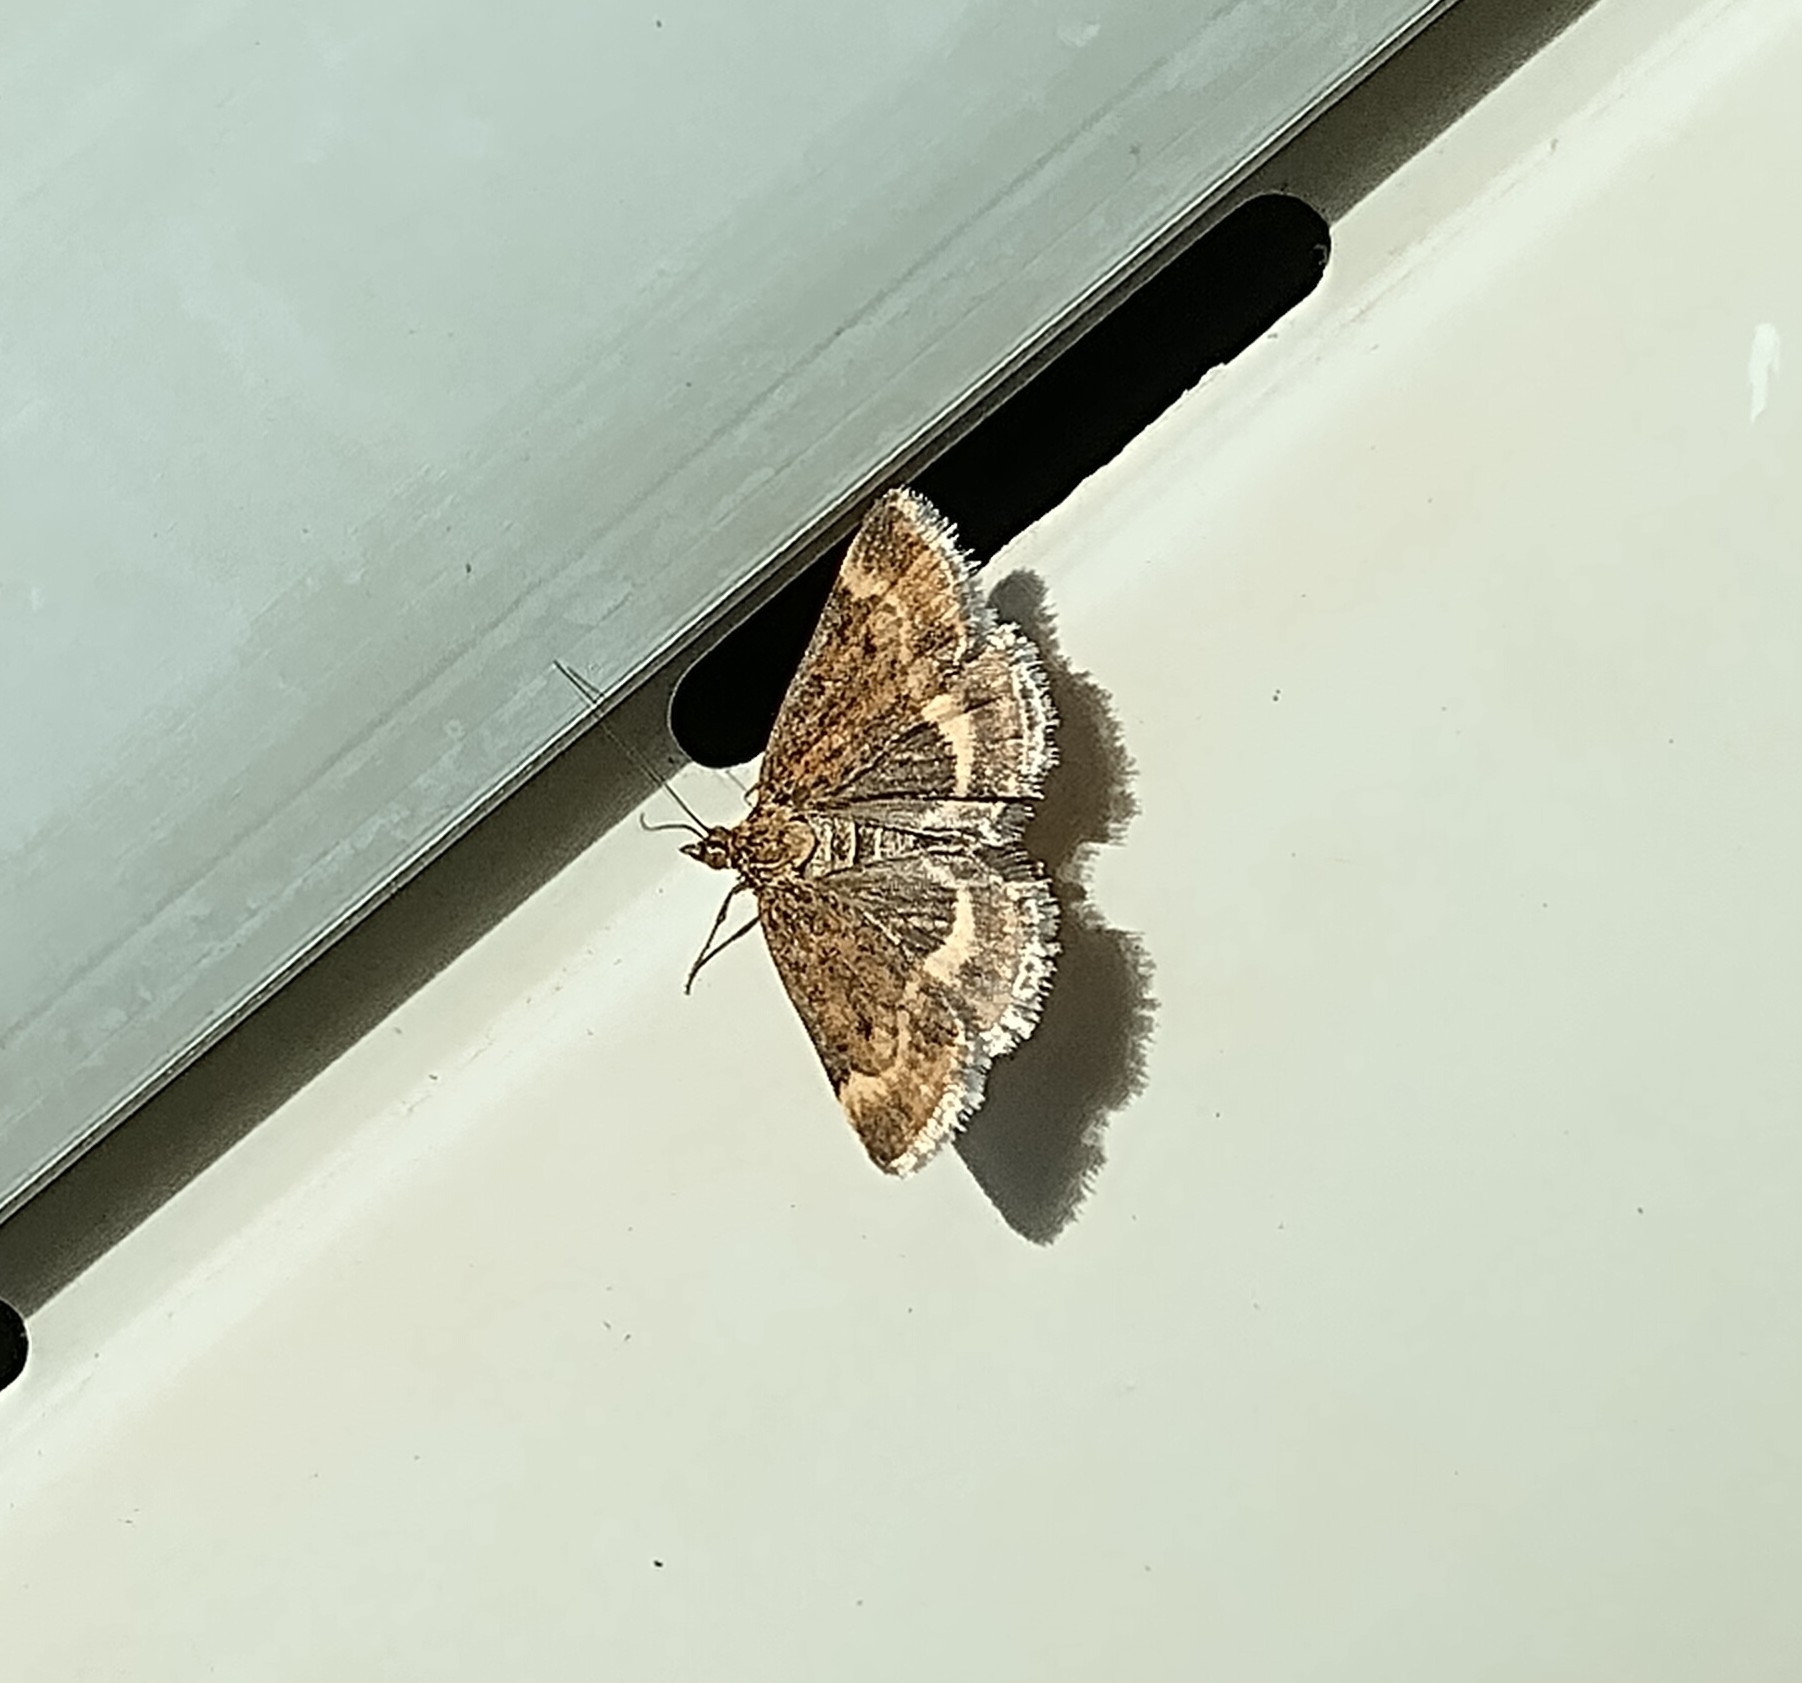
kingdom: Animalia
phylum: Arthropoda
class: Insecta
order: Lepidoptera
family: Crambidae
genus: Pyrausta
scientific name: Pyrausta despicata
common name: Straw-barred pearl
